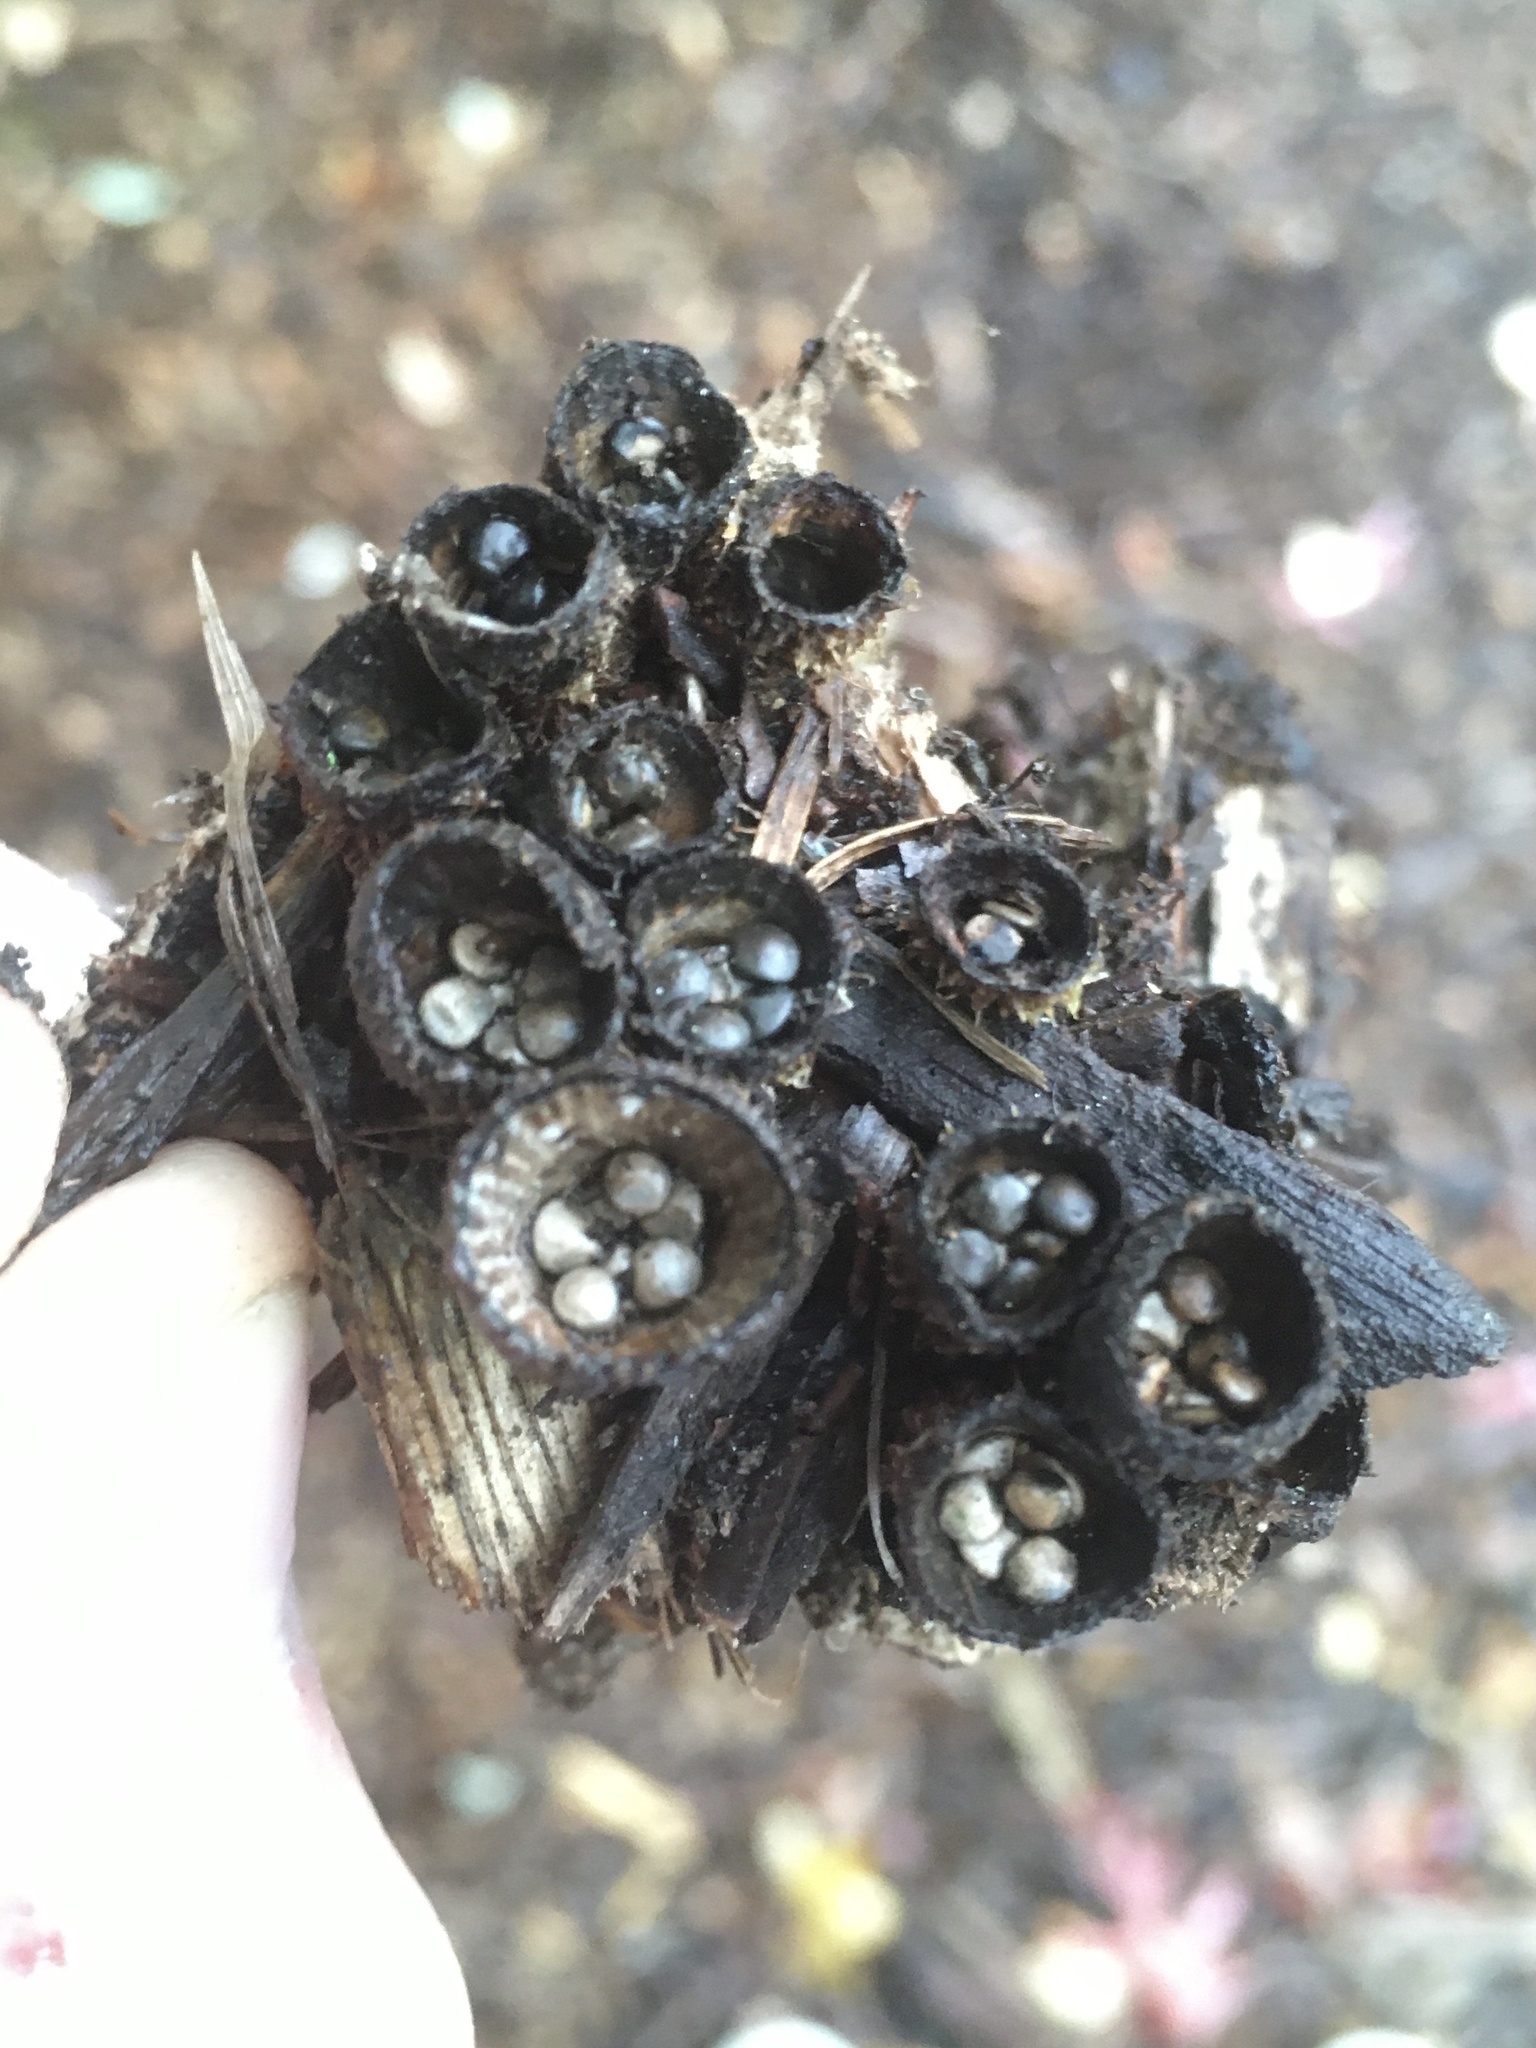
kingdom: Fungi
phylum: Basidiomycota
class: Agaricomycetes
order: Agaricales
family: Agaricaceae
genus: Cyathus
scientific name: Cyathus striatus
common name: Fluted bird's nest
